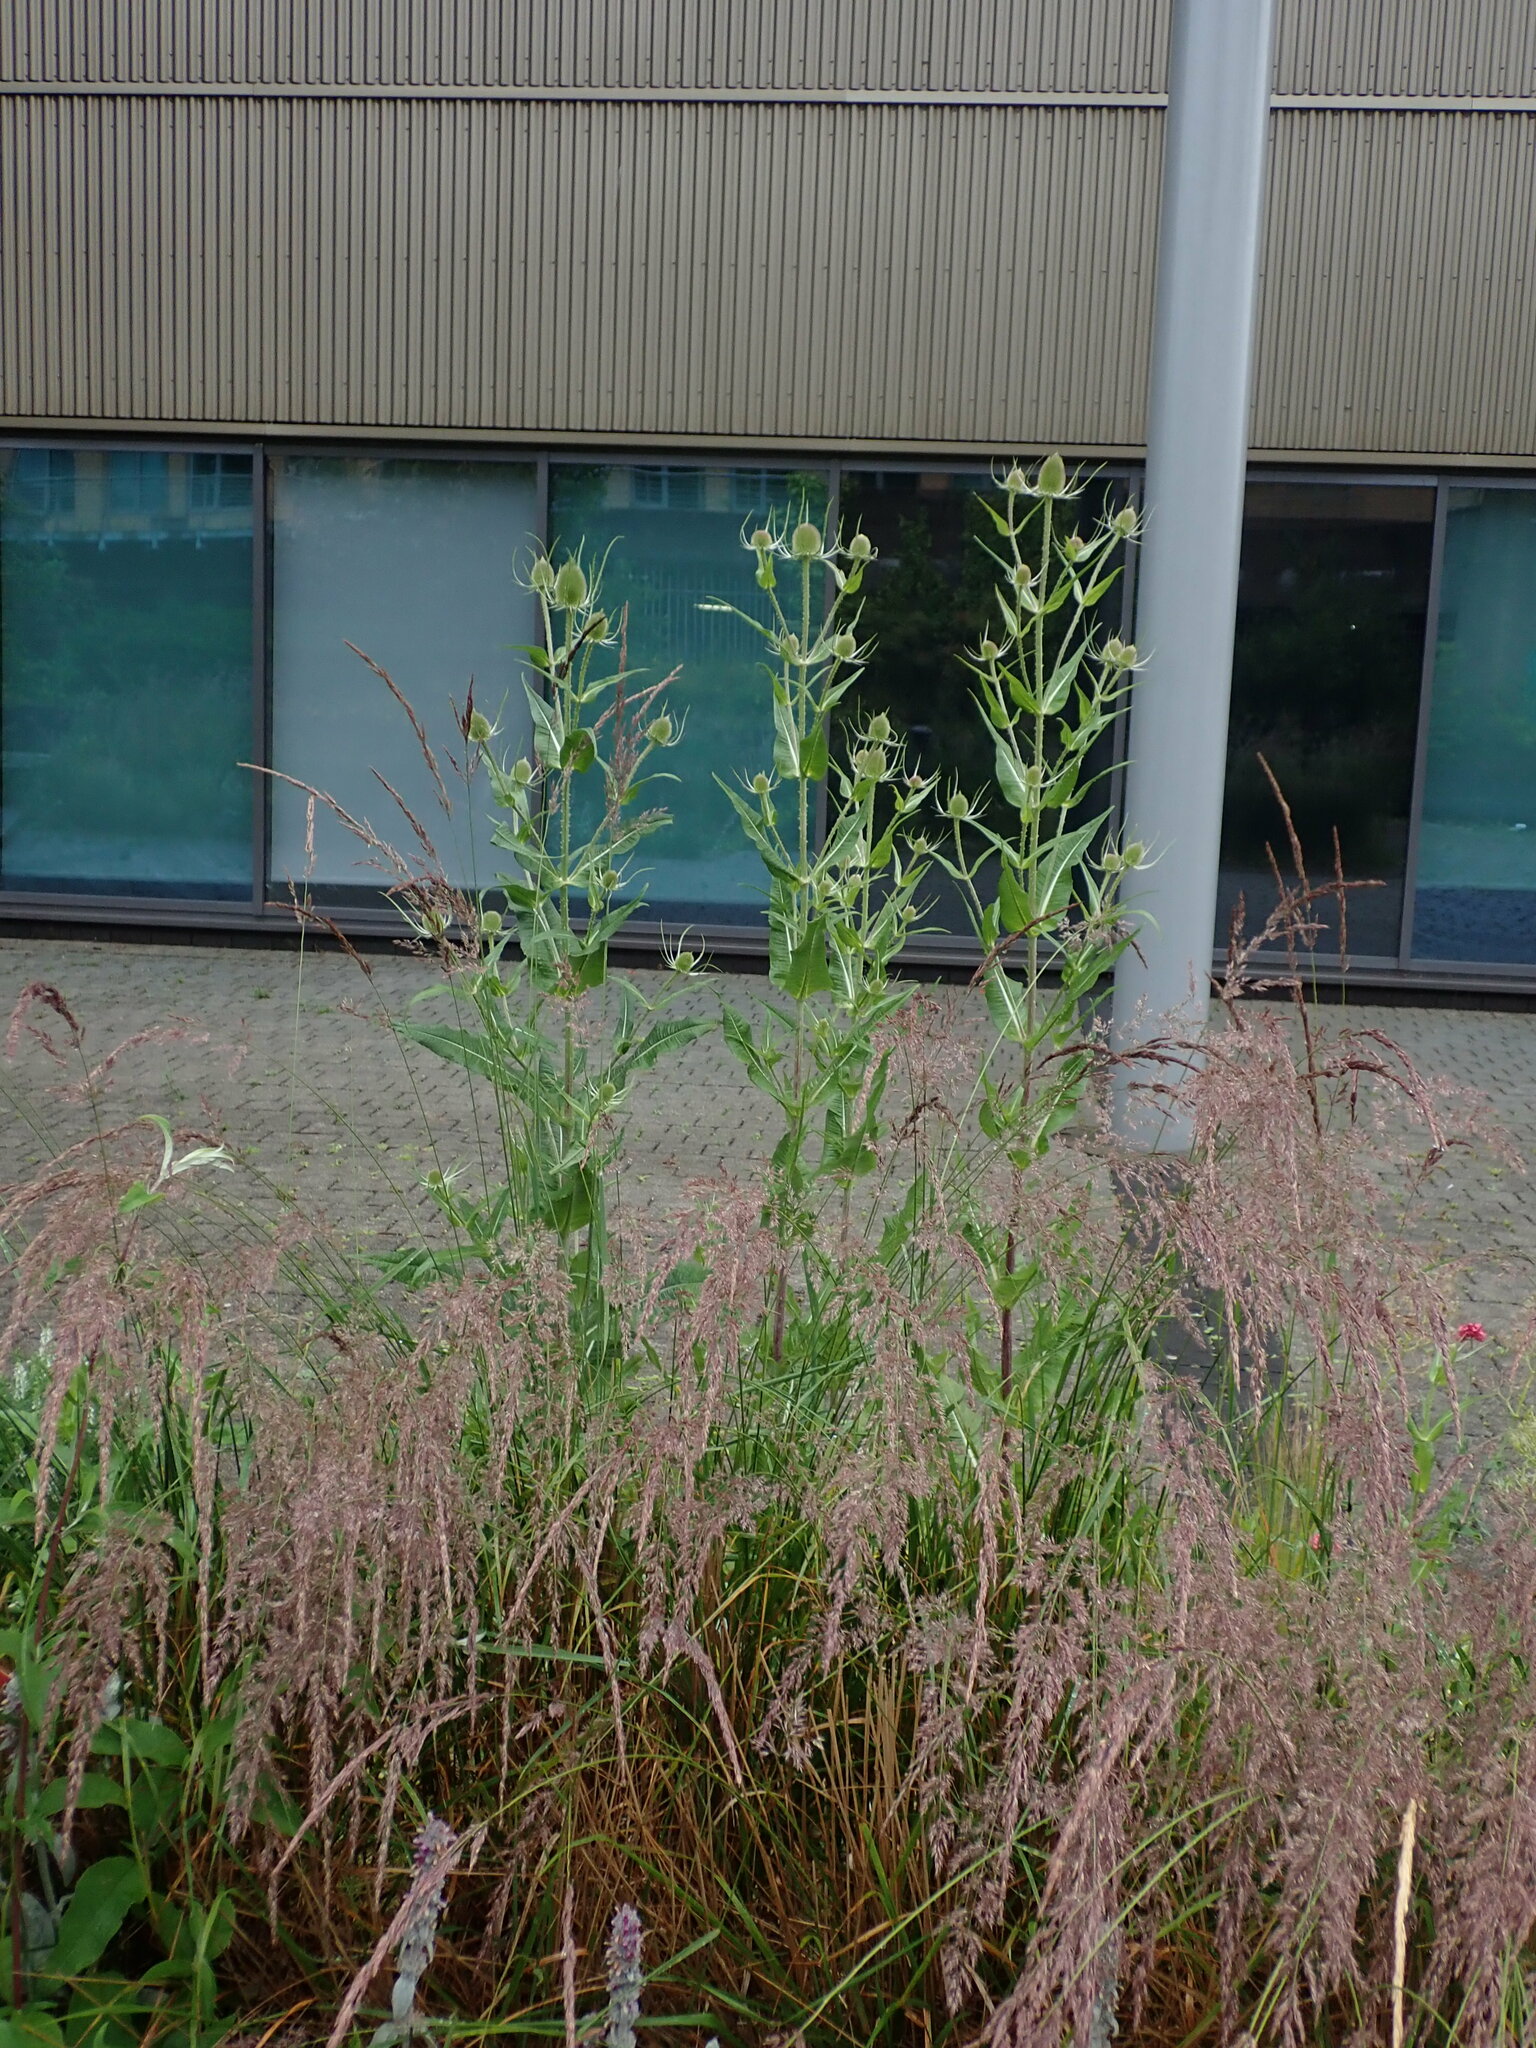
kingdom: Plantae
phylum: Tracheophyta
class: Magnoliopsida
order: Dipsacales
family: Caprifoliaceae
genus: Dipsacus
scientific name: Dipsacus fullonum
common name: Teasel
